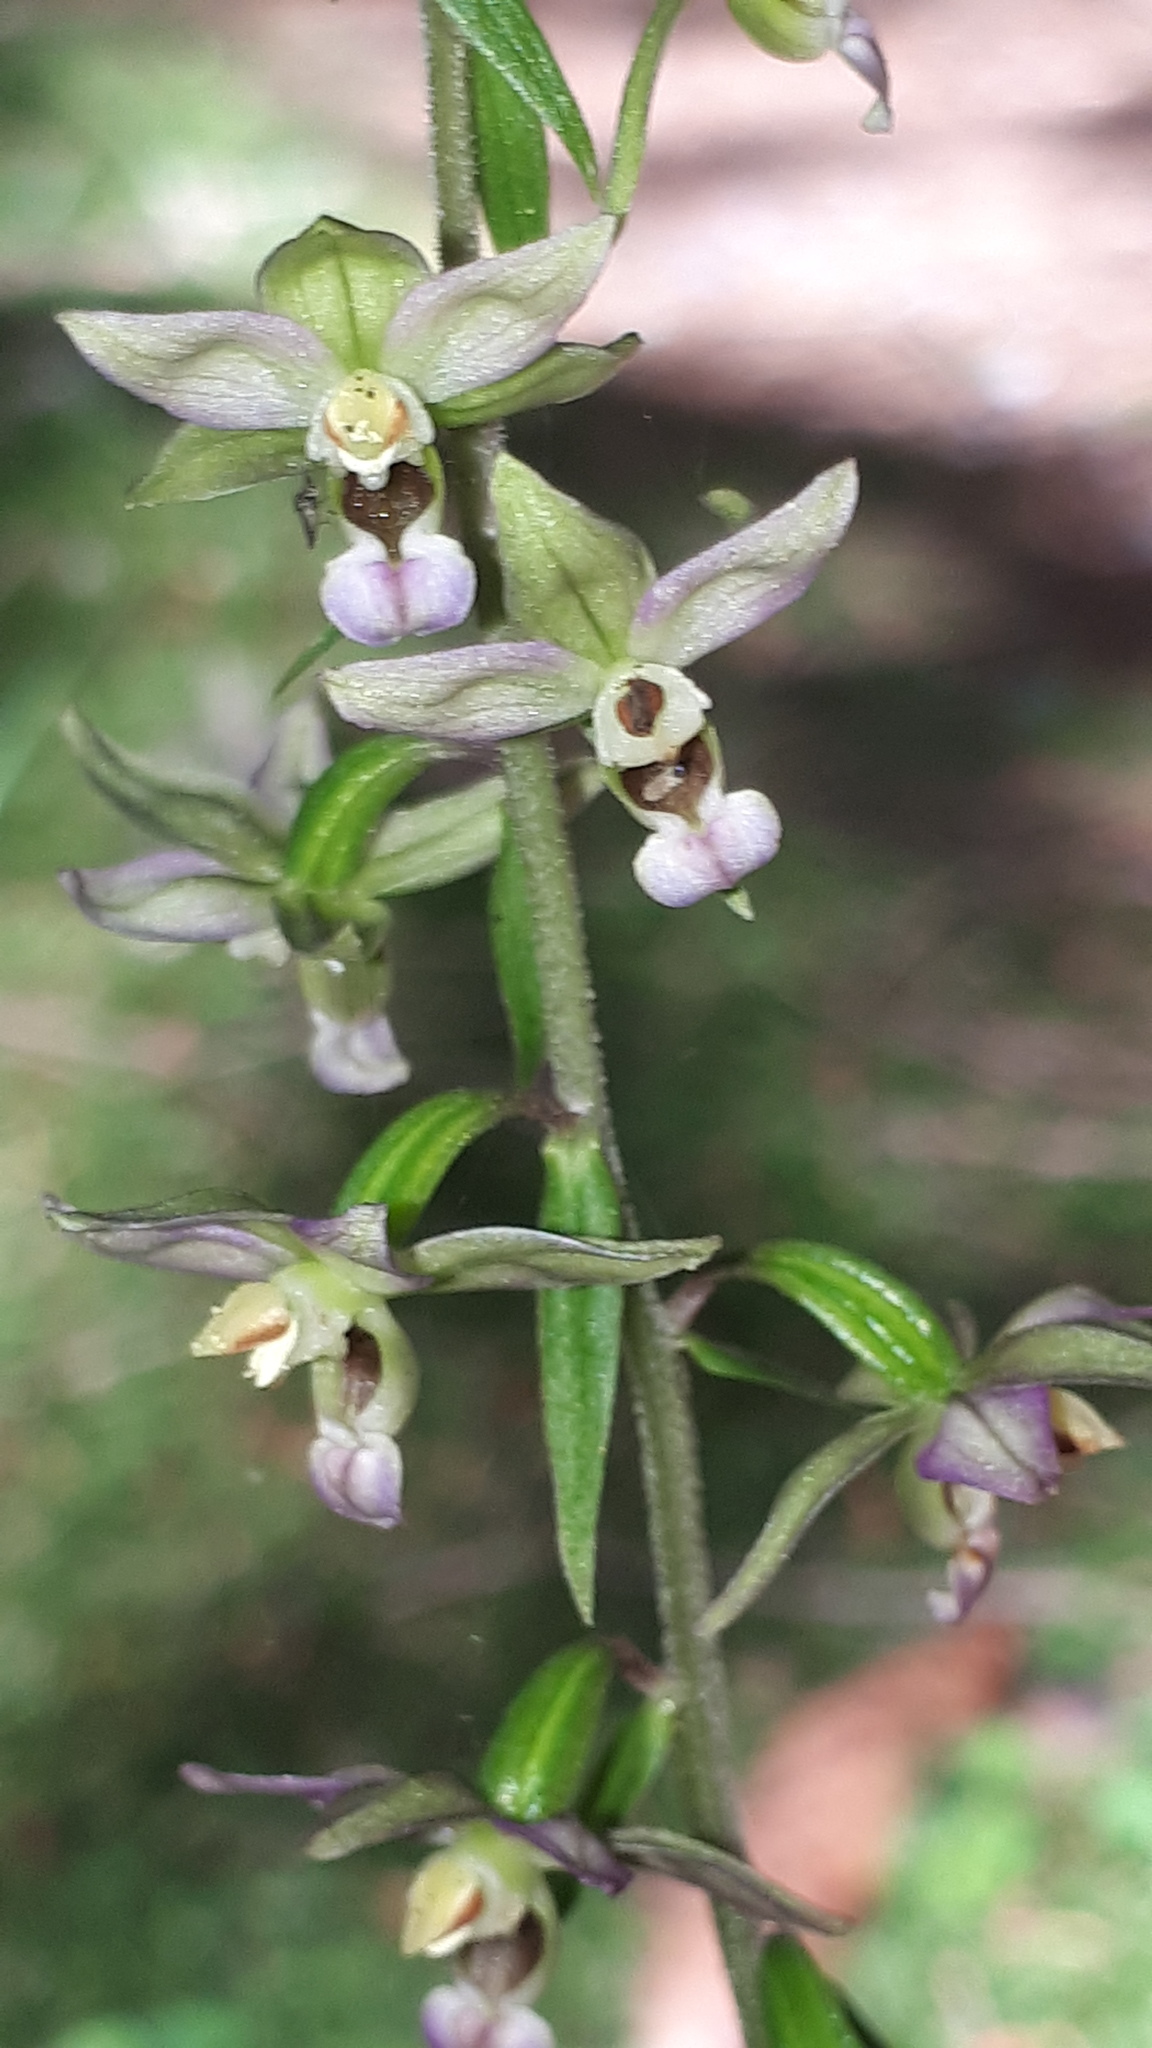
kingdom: Plantae
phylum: Tracheophyta
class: Liliopsida
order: Asparagales
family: Orchidaceae
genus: Epipactis
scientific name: Epipactis helleborine
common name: Broad-leaved helleborine
